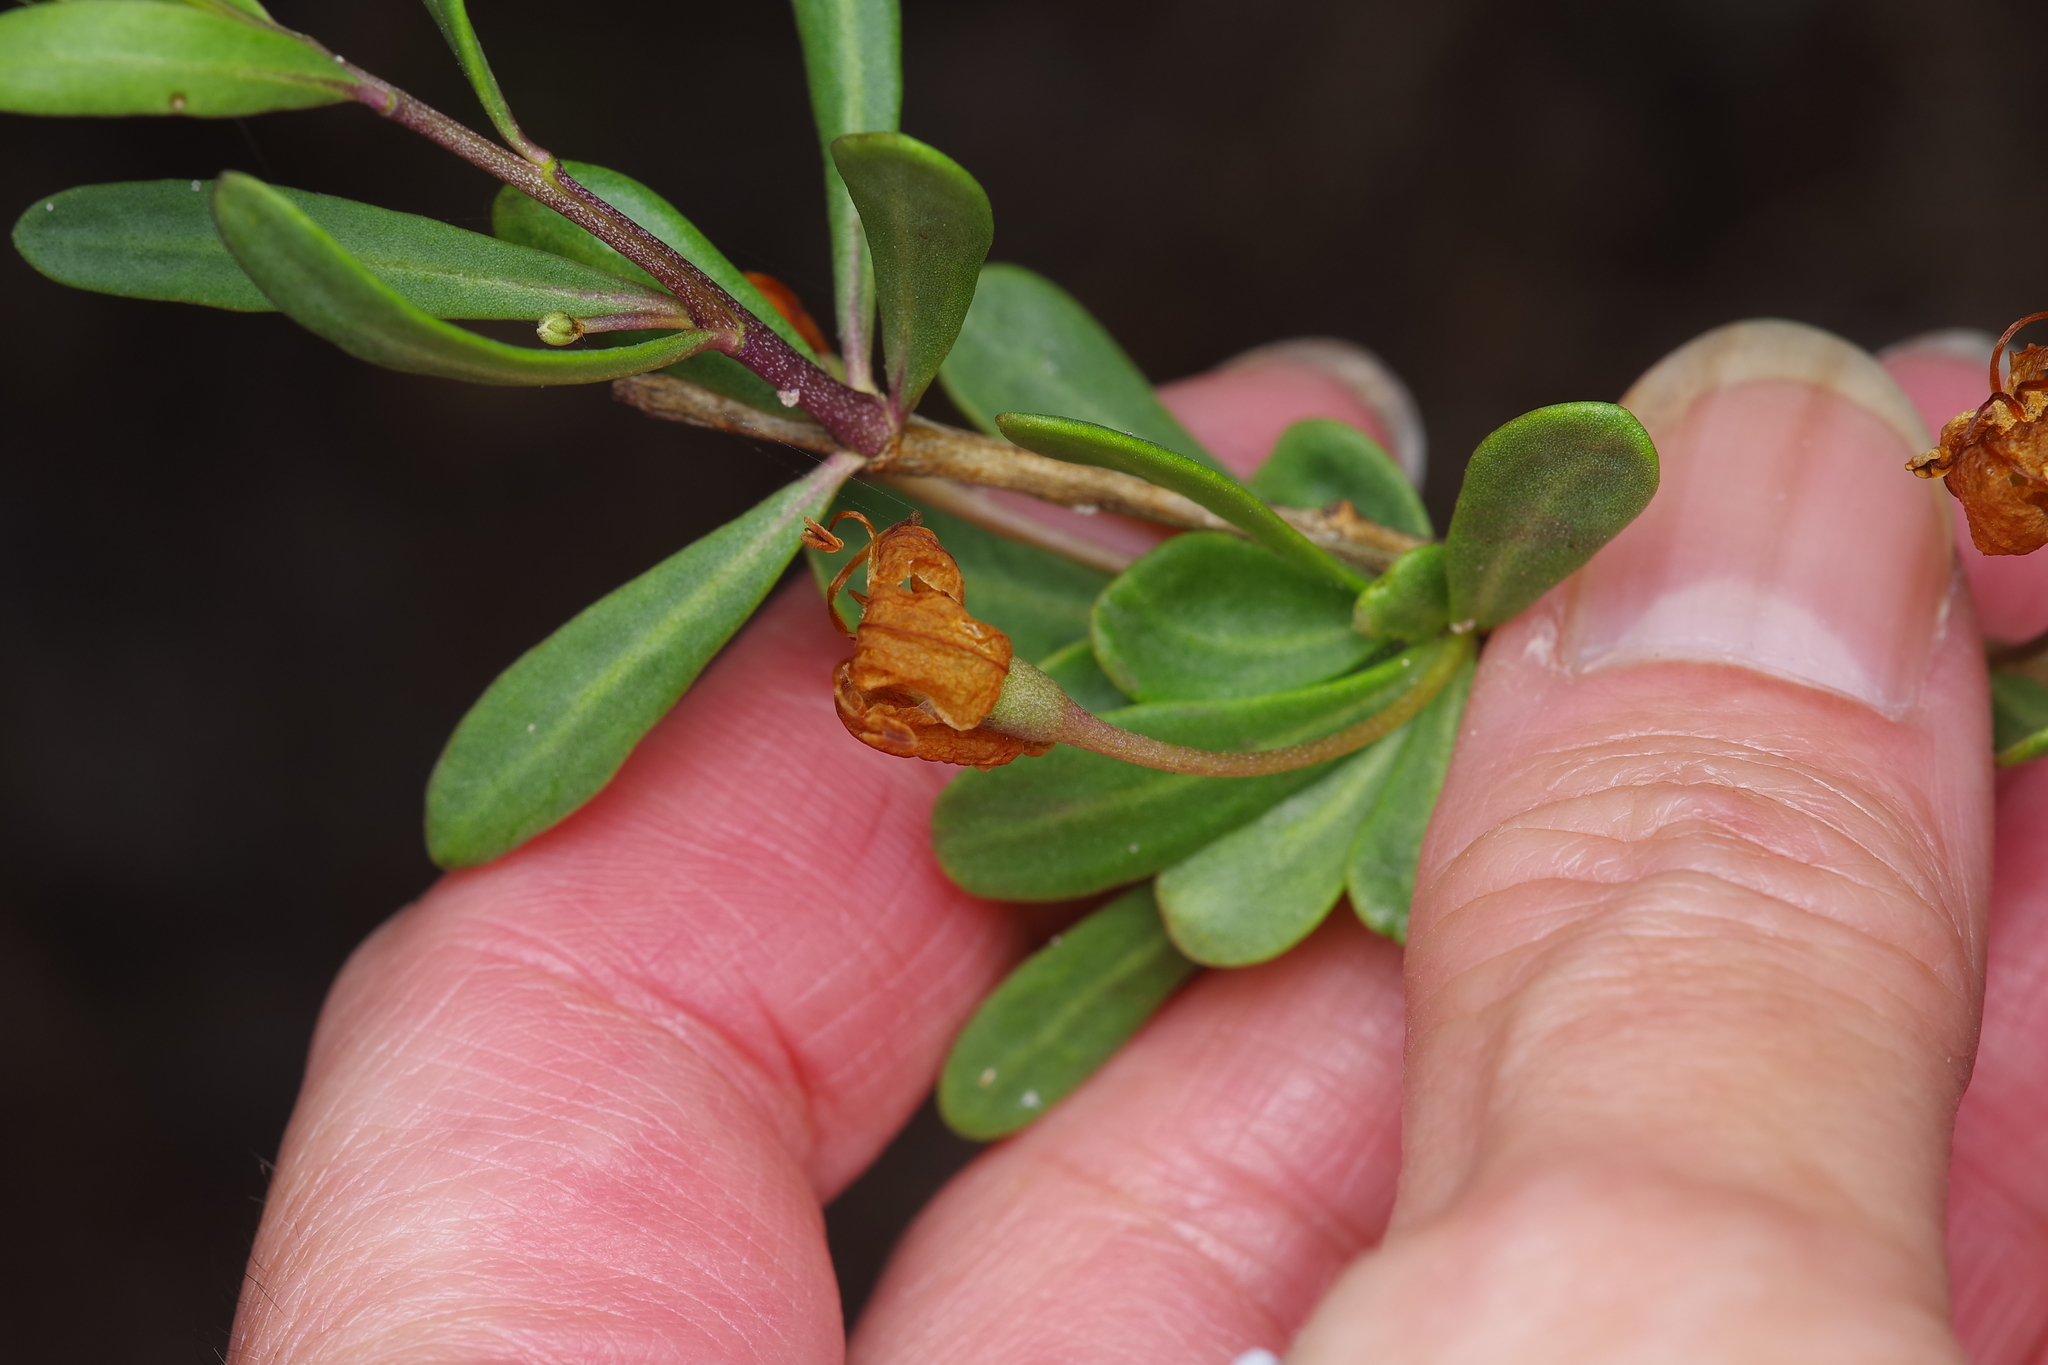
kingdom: Plantae
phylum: Tracheophyta
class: Magnoliopsida
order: Solanales
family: Solanaceae
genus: Lycium
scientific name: Lycium carolinianum
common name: Christmasberry
